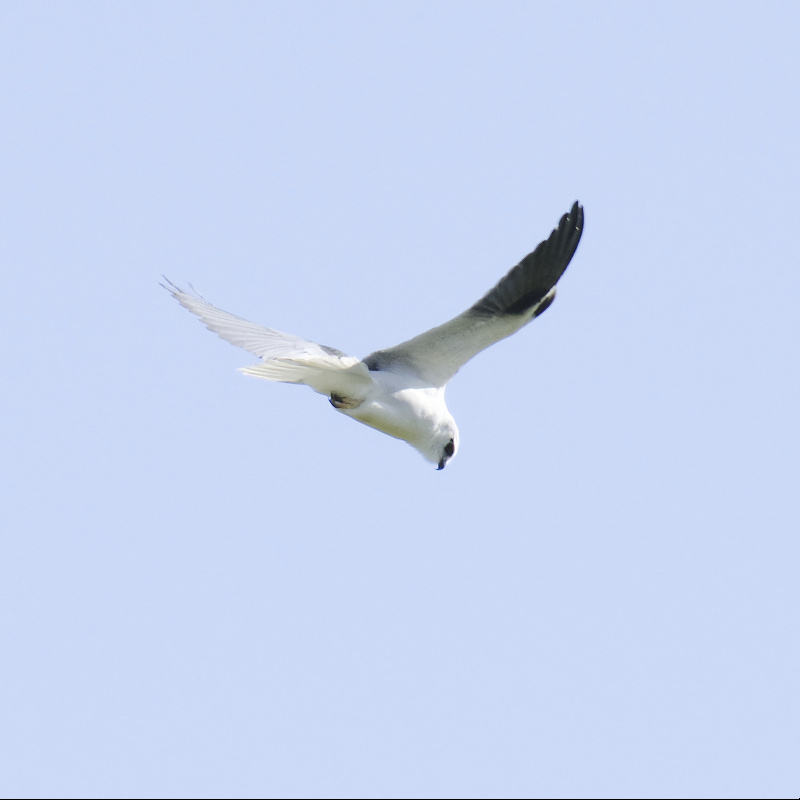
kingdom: Animalia
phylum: Chordata
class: Aves
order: Accipitriformes
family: Accipitridae
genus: Elanus
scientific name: Elanus axillaris
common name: Black-shouldered kite
